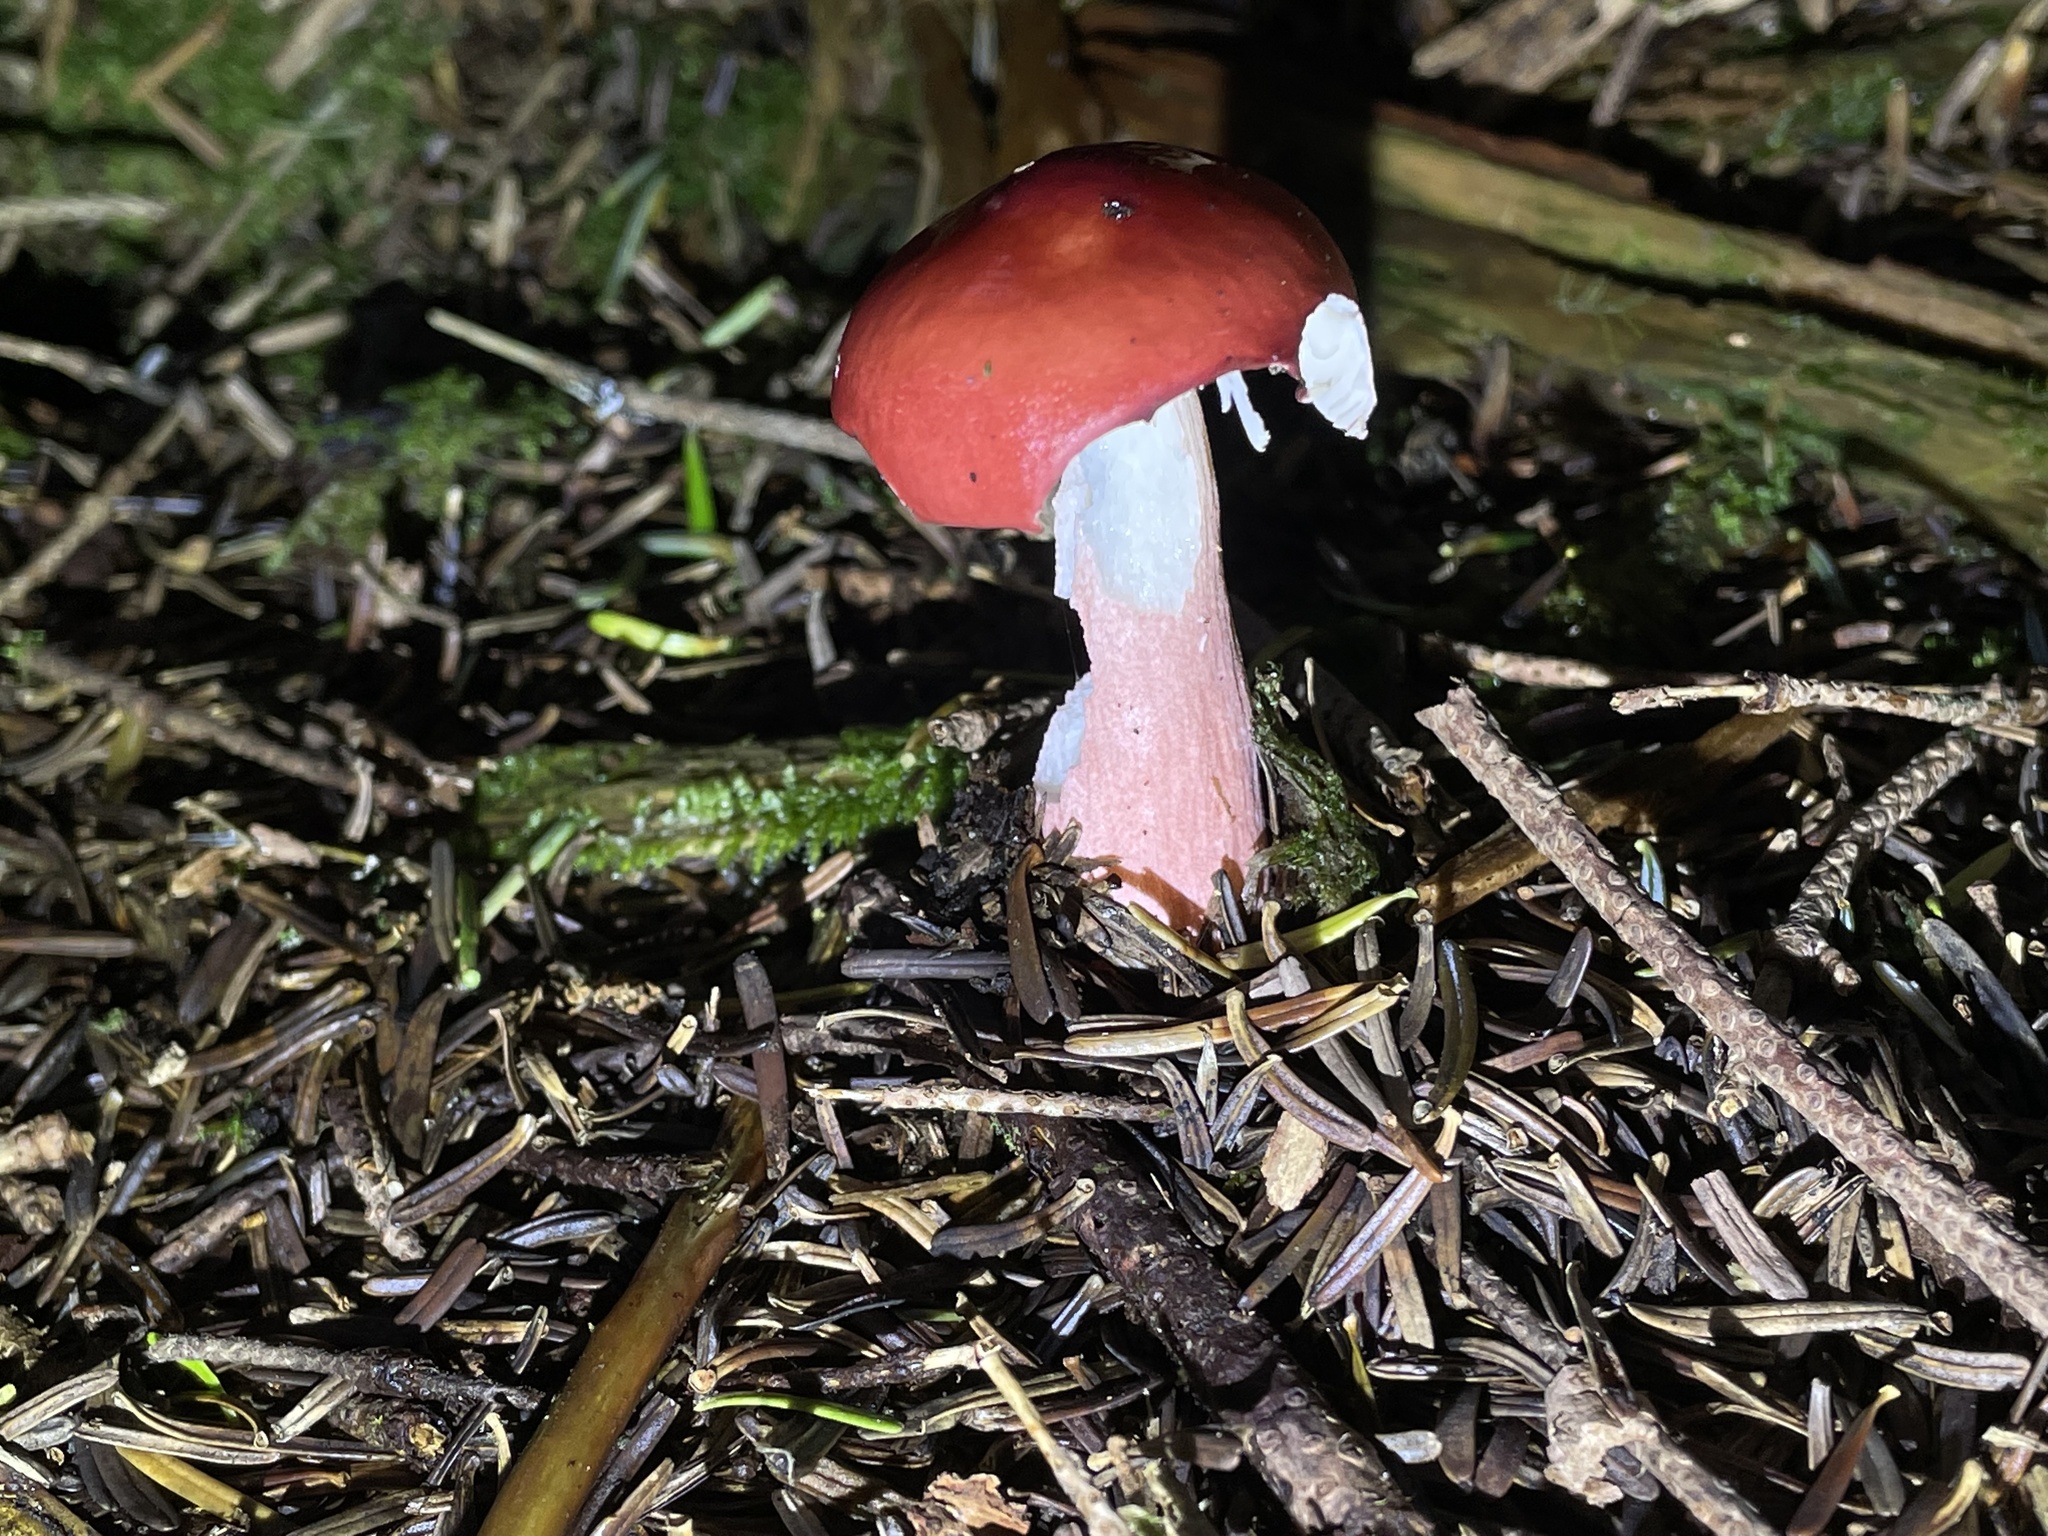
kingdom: Fungi
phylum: Basidiomycota
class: Agaricomycetes
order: Russulales
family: Russulaceae
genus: Russula
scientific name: Russula peckii
